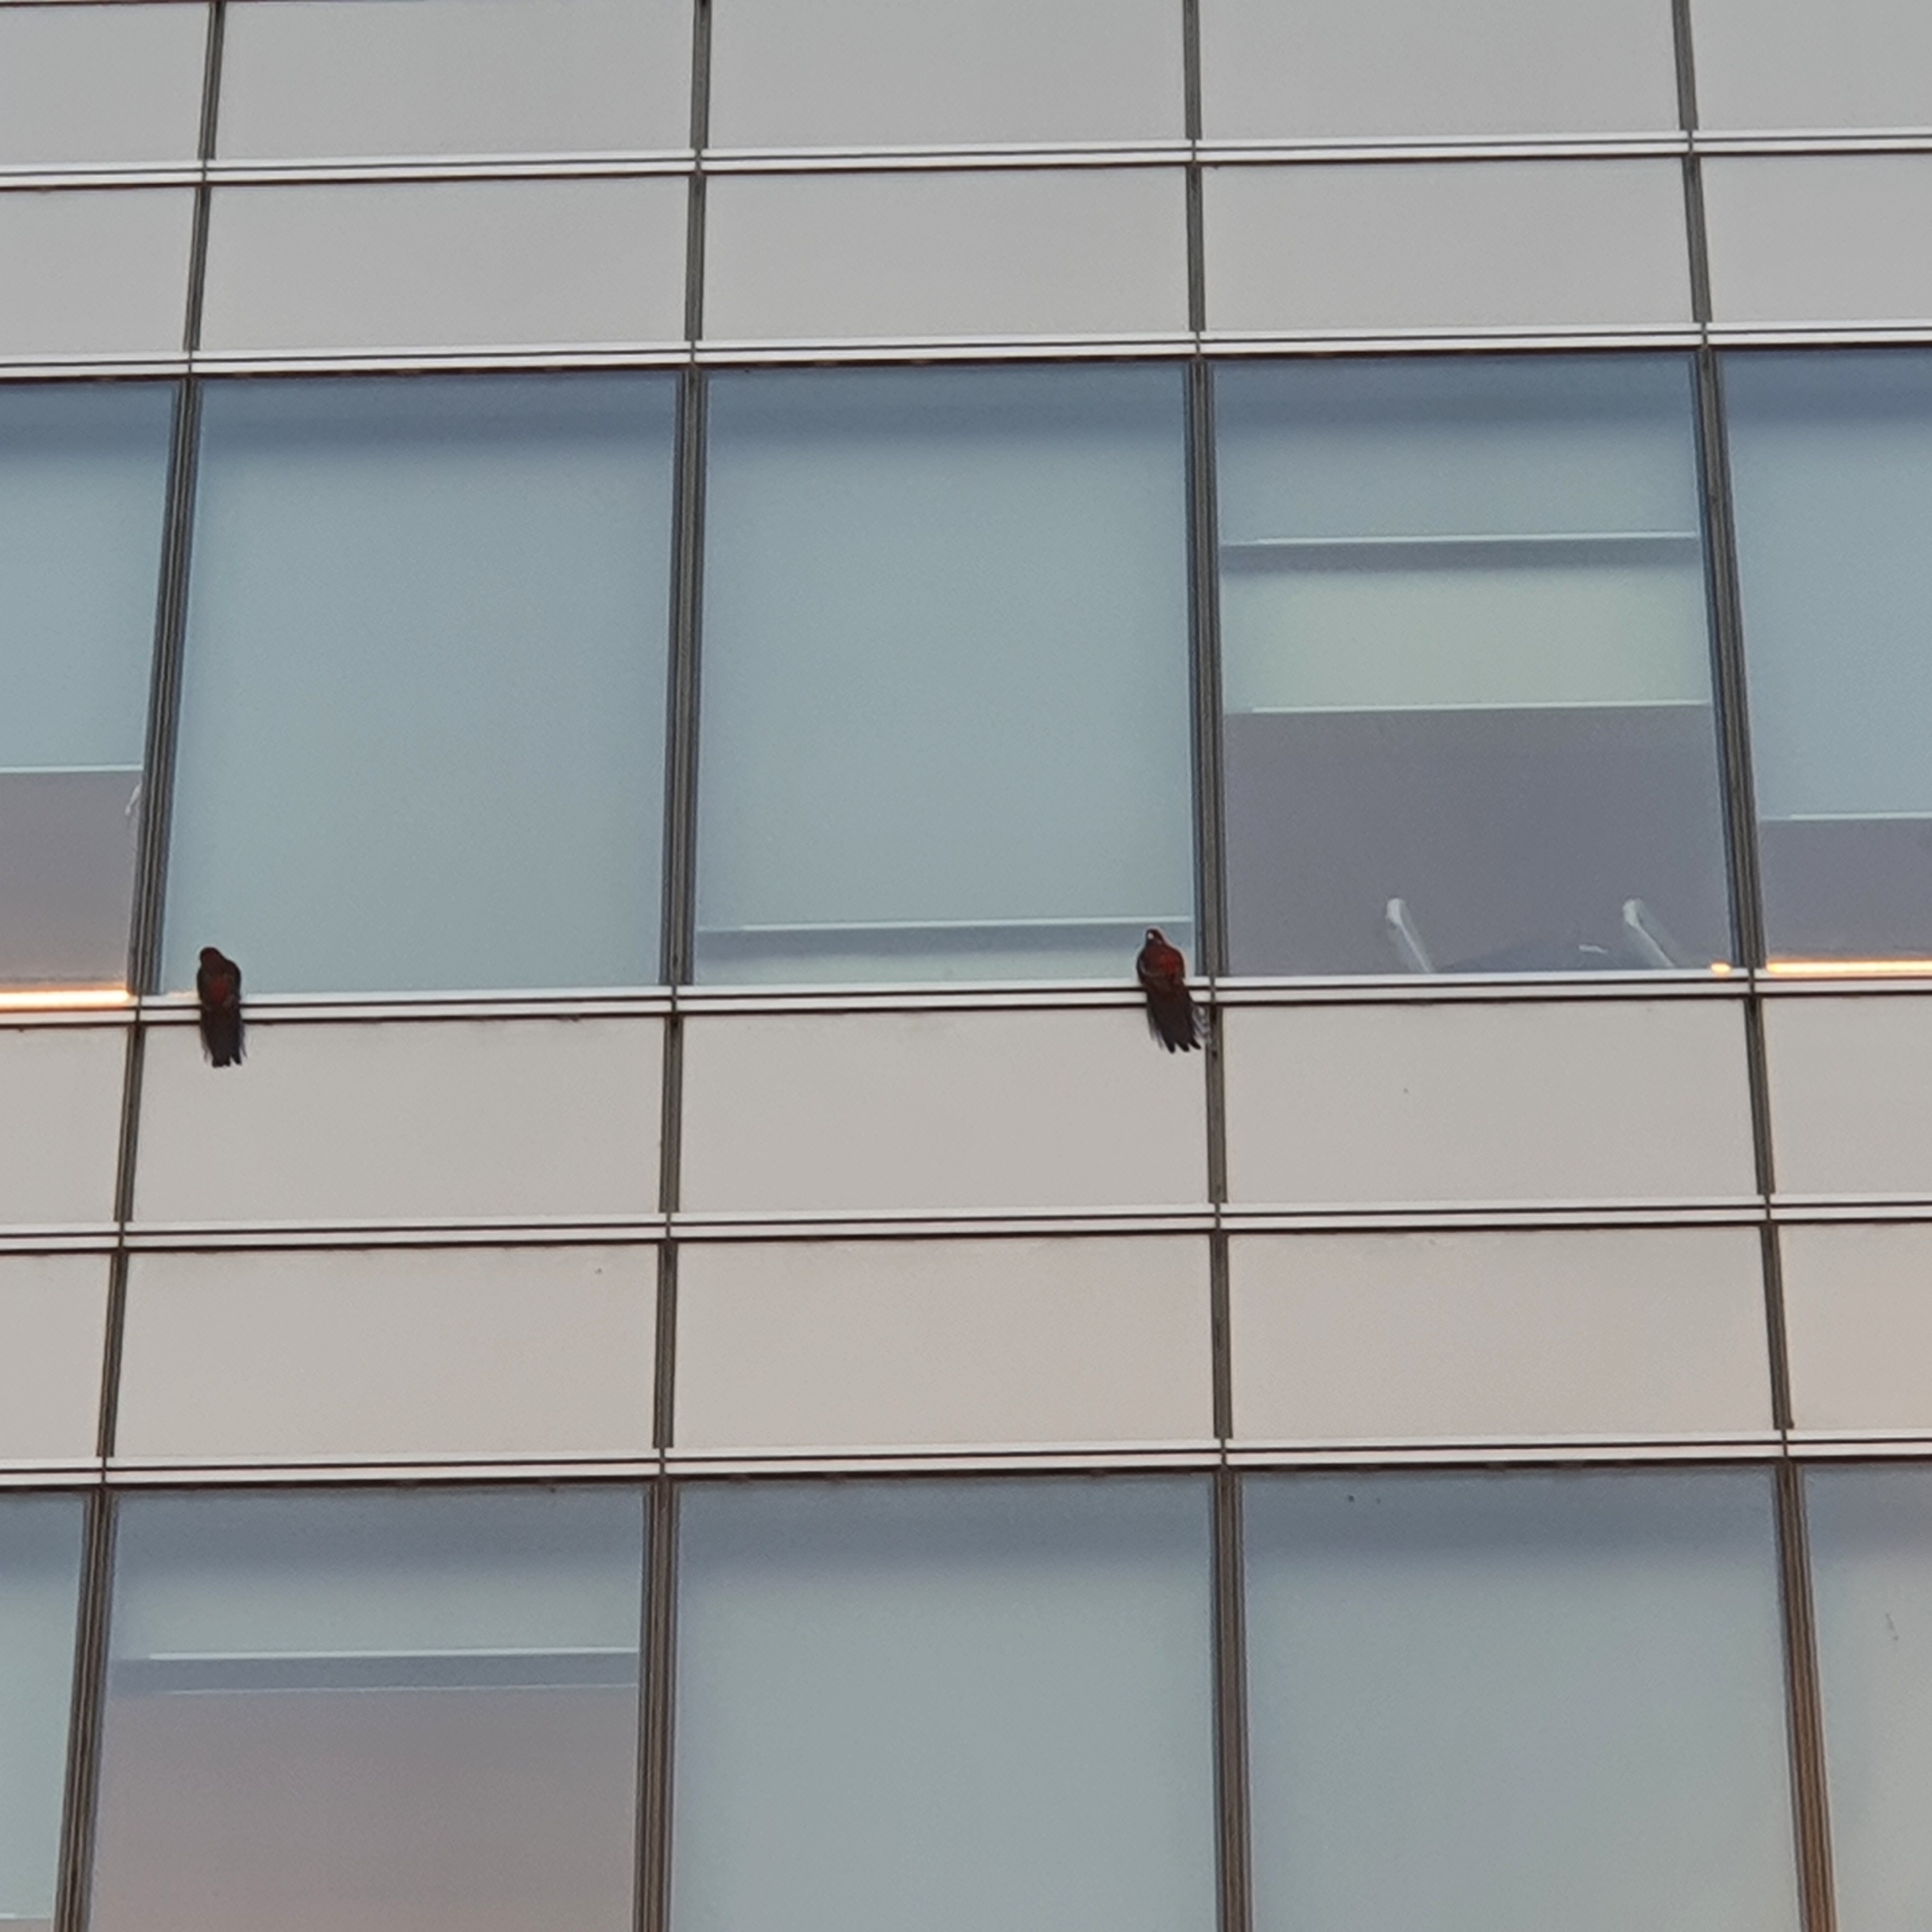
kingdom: Animalia
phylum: Chordata
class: Aves
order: Psittaciformes
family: Psittacidae
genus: Platycercus
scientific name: Platycercus elegans
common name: Crimson rosella
